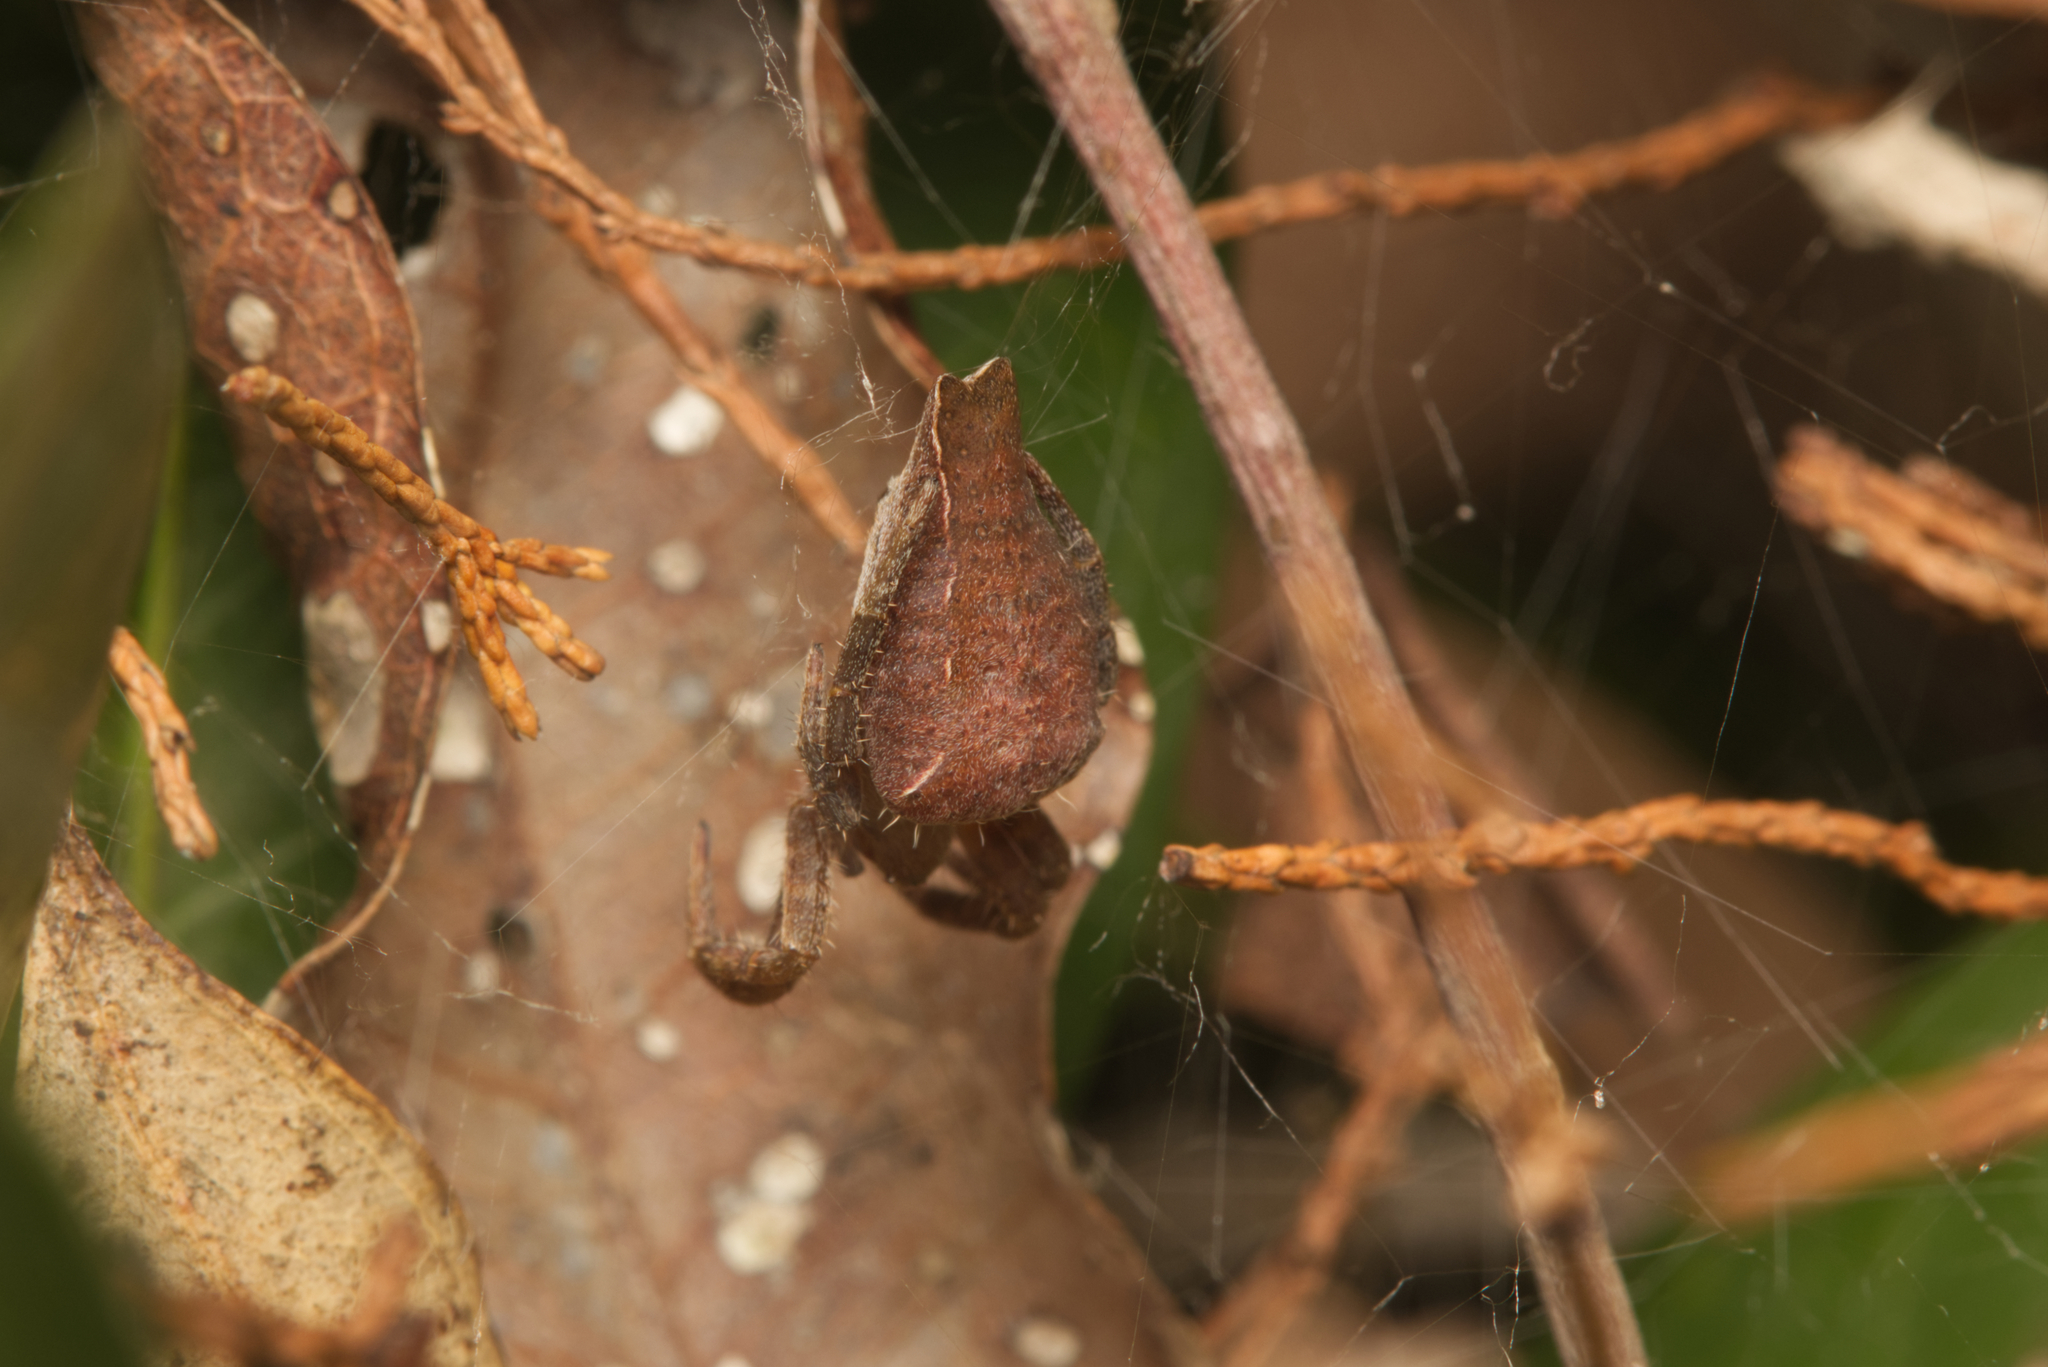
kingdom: Animalia
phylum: Arthropoda
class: Arachnida
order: Araneae
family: Araneidae
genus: Cyrtophora
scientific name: Cyrtophora exanthematica
